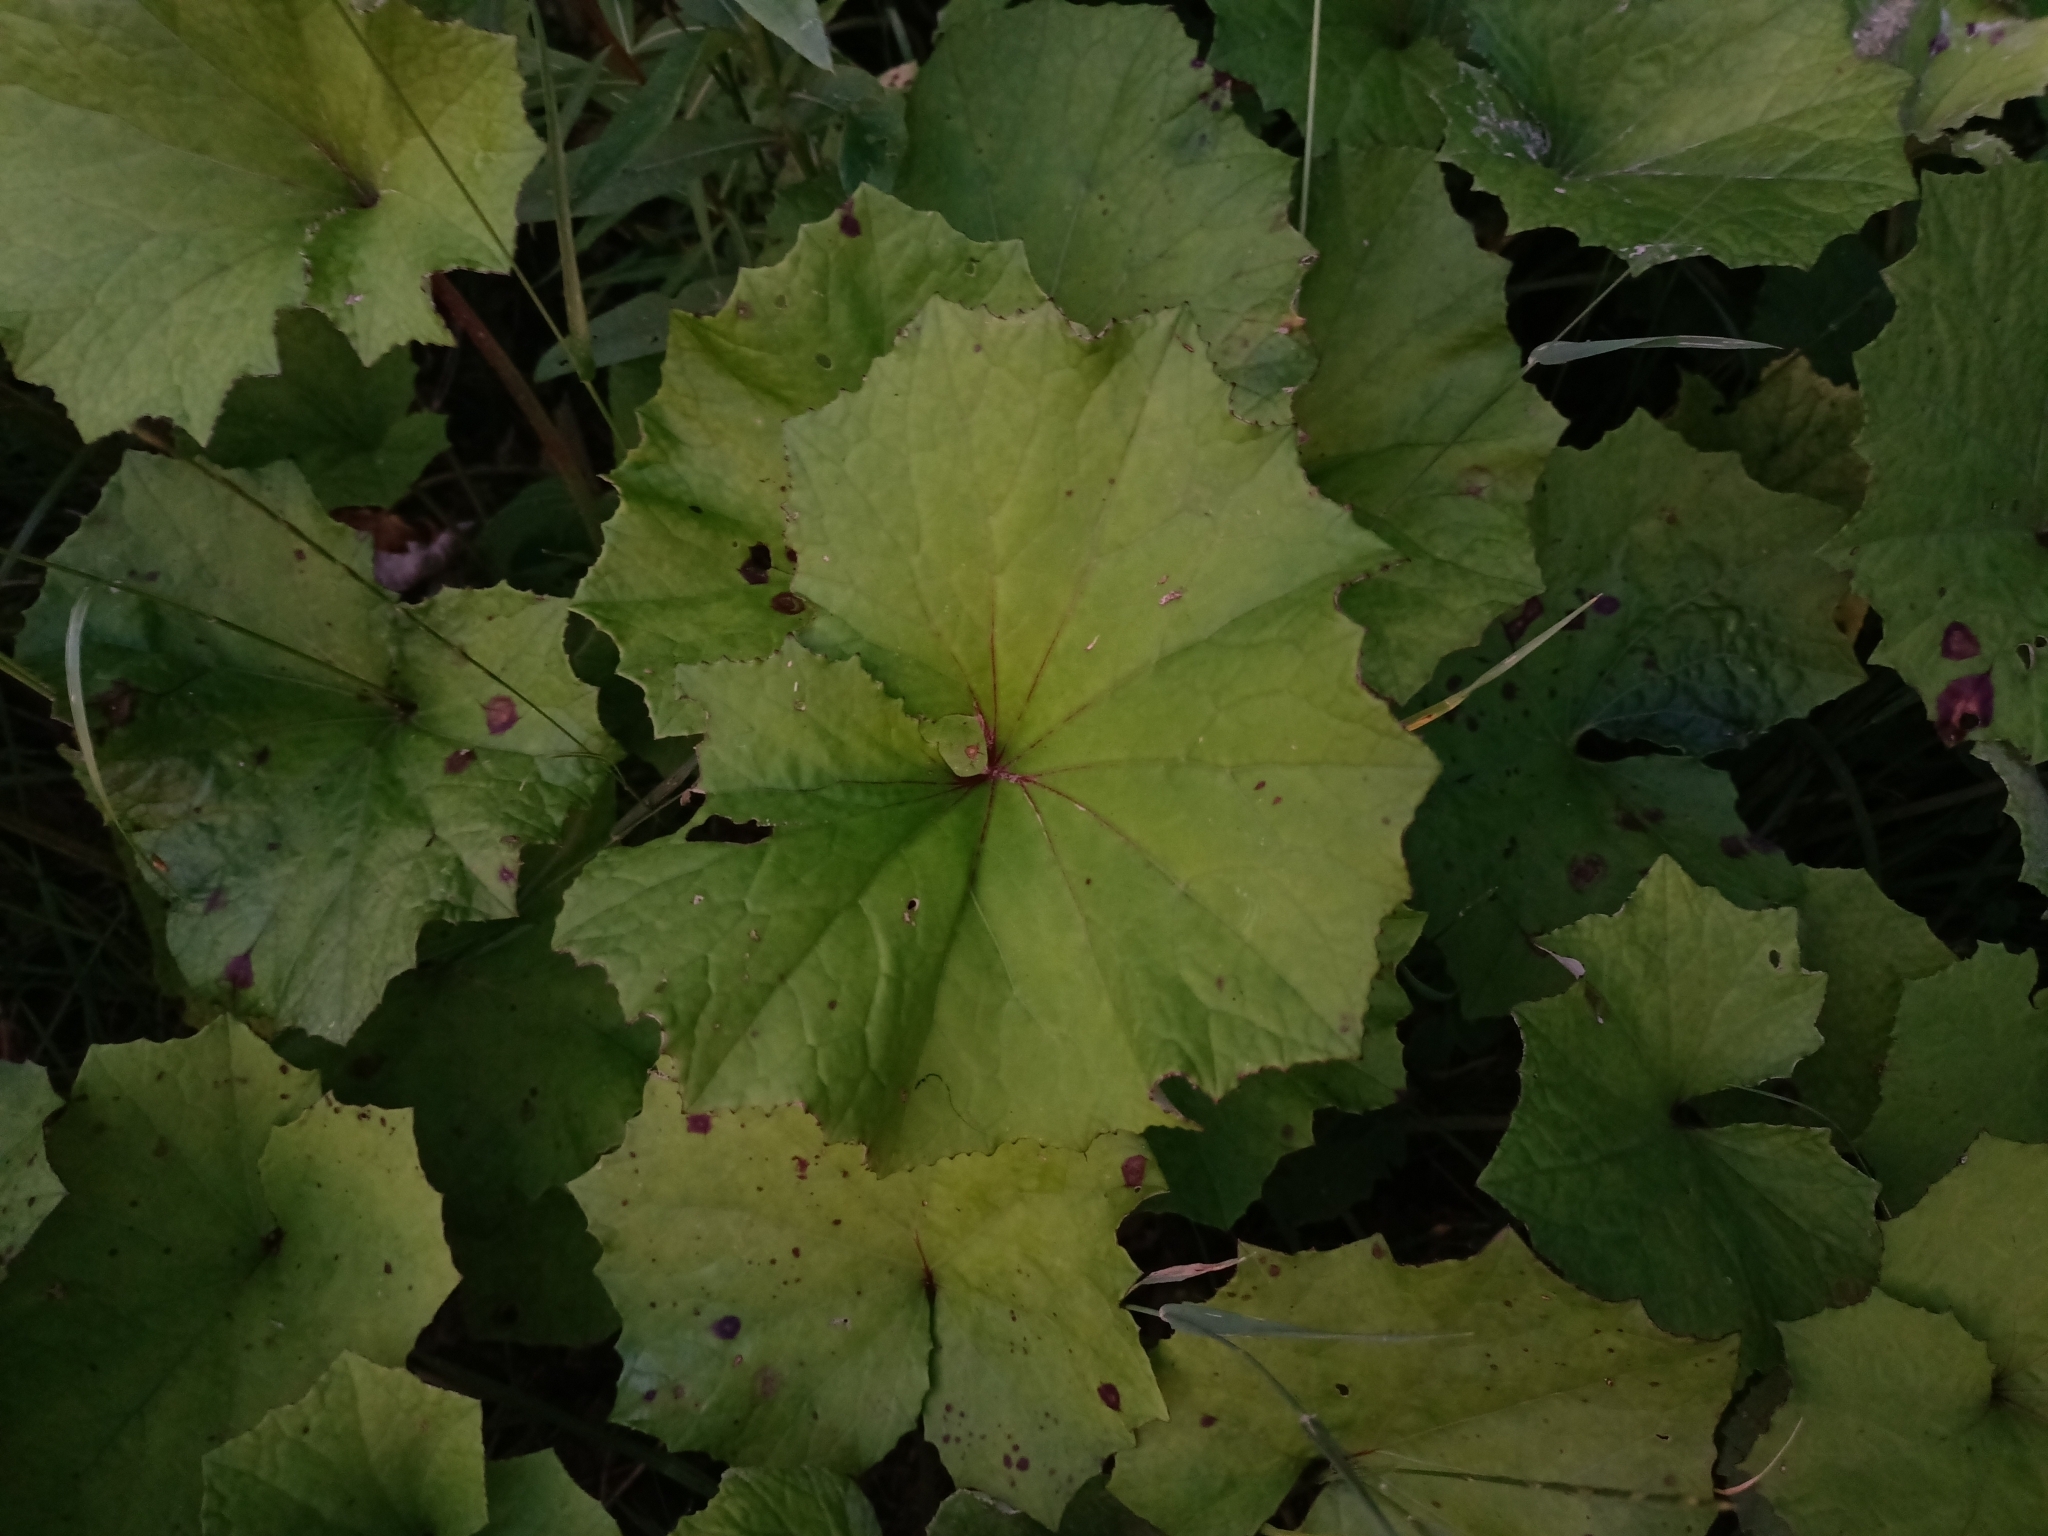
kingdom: Plantae
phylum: Tracheophyta
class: Magnoliopsida
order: Asterales
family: Asteraceae
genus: Tussilago
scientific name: Tussilago farfara
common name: Coltsfoot
